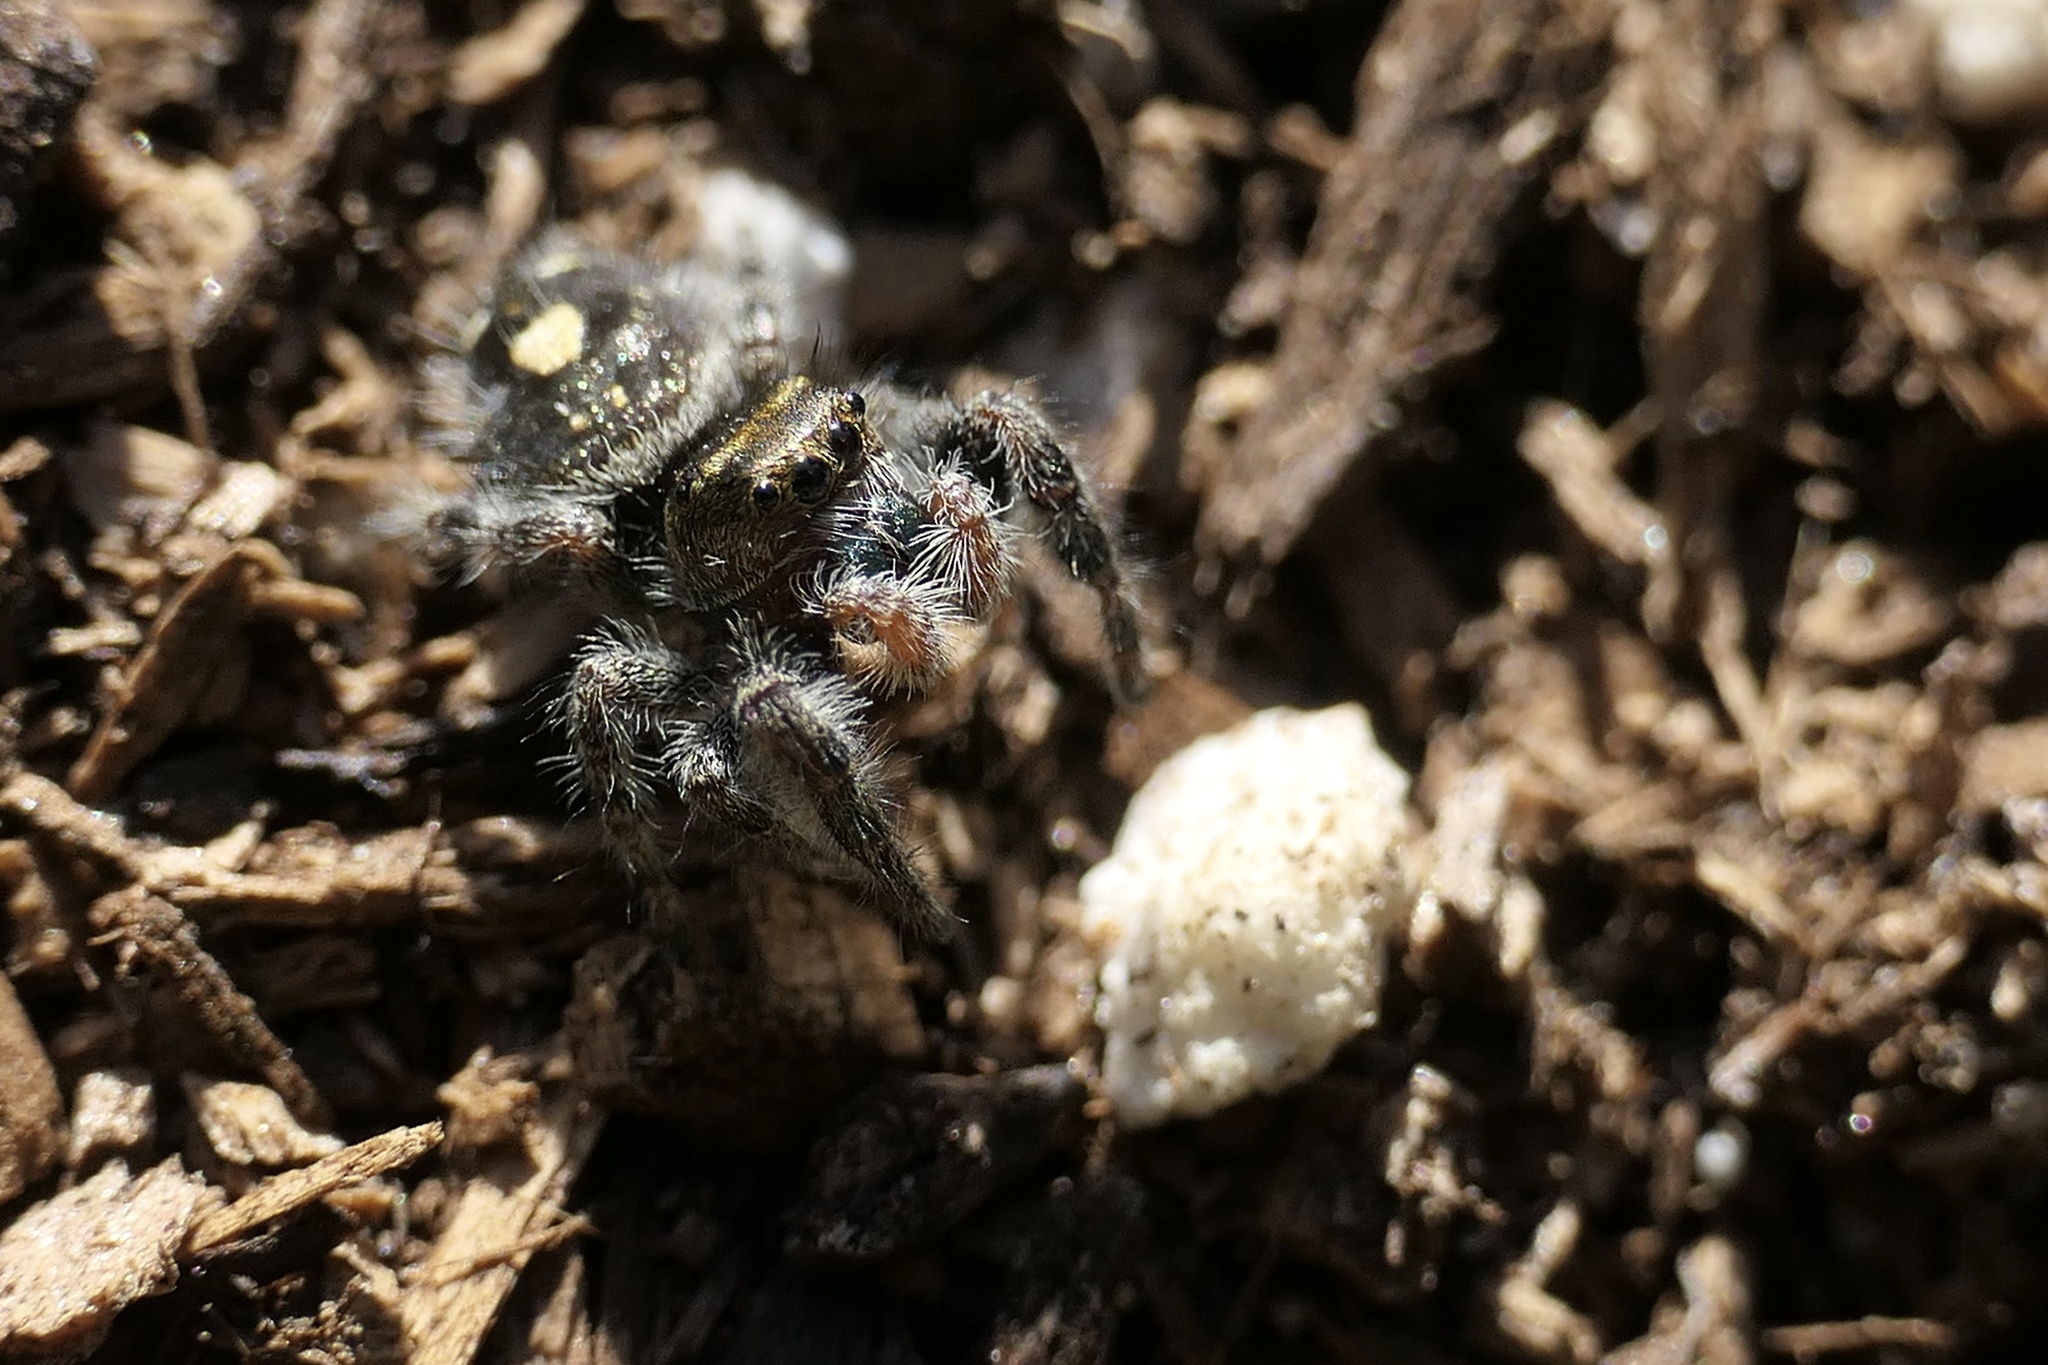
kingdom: Animalia
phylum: Arthropoda
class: Arachnida
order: Araneae
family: Salticidae
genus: Phidippus
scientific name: Phidippus audax
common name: Bold jumper
